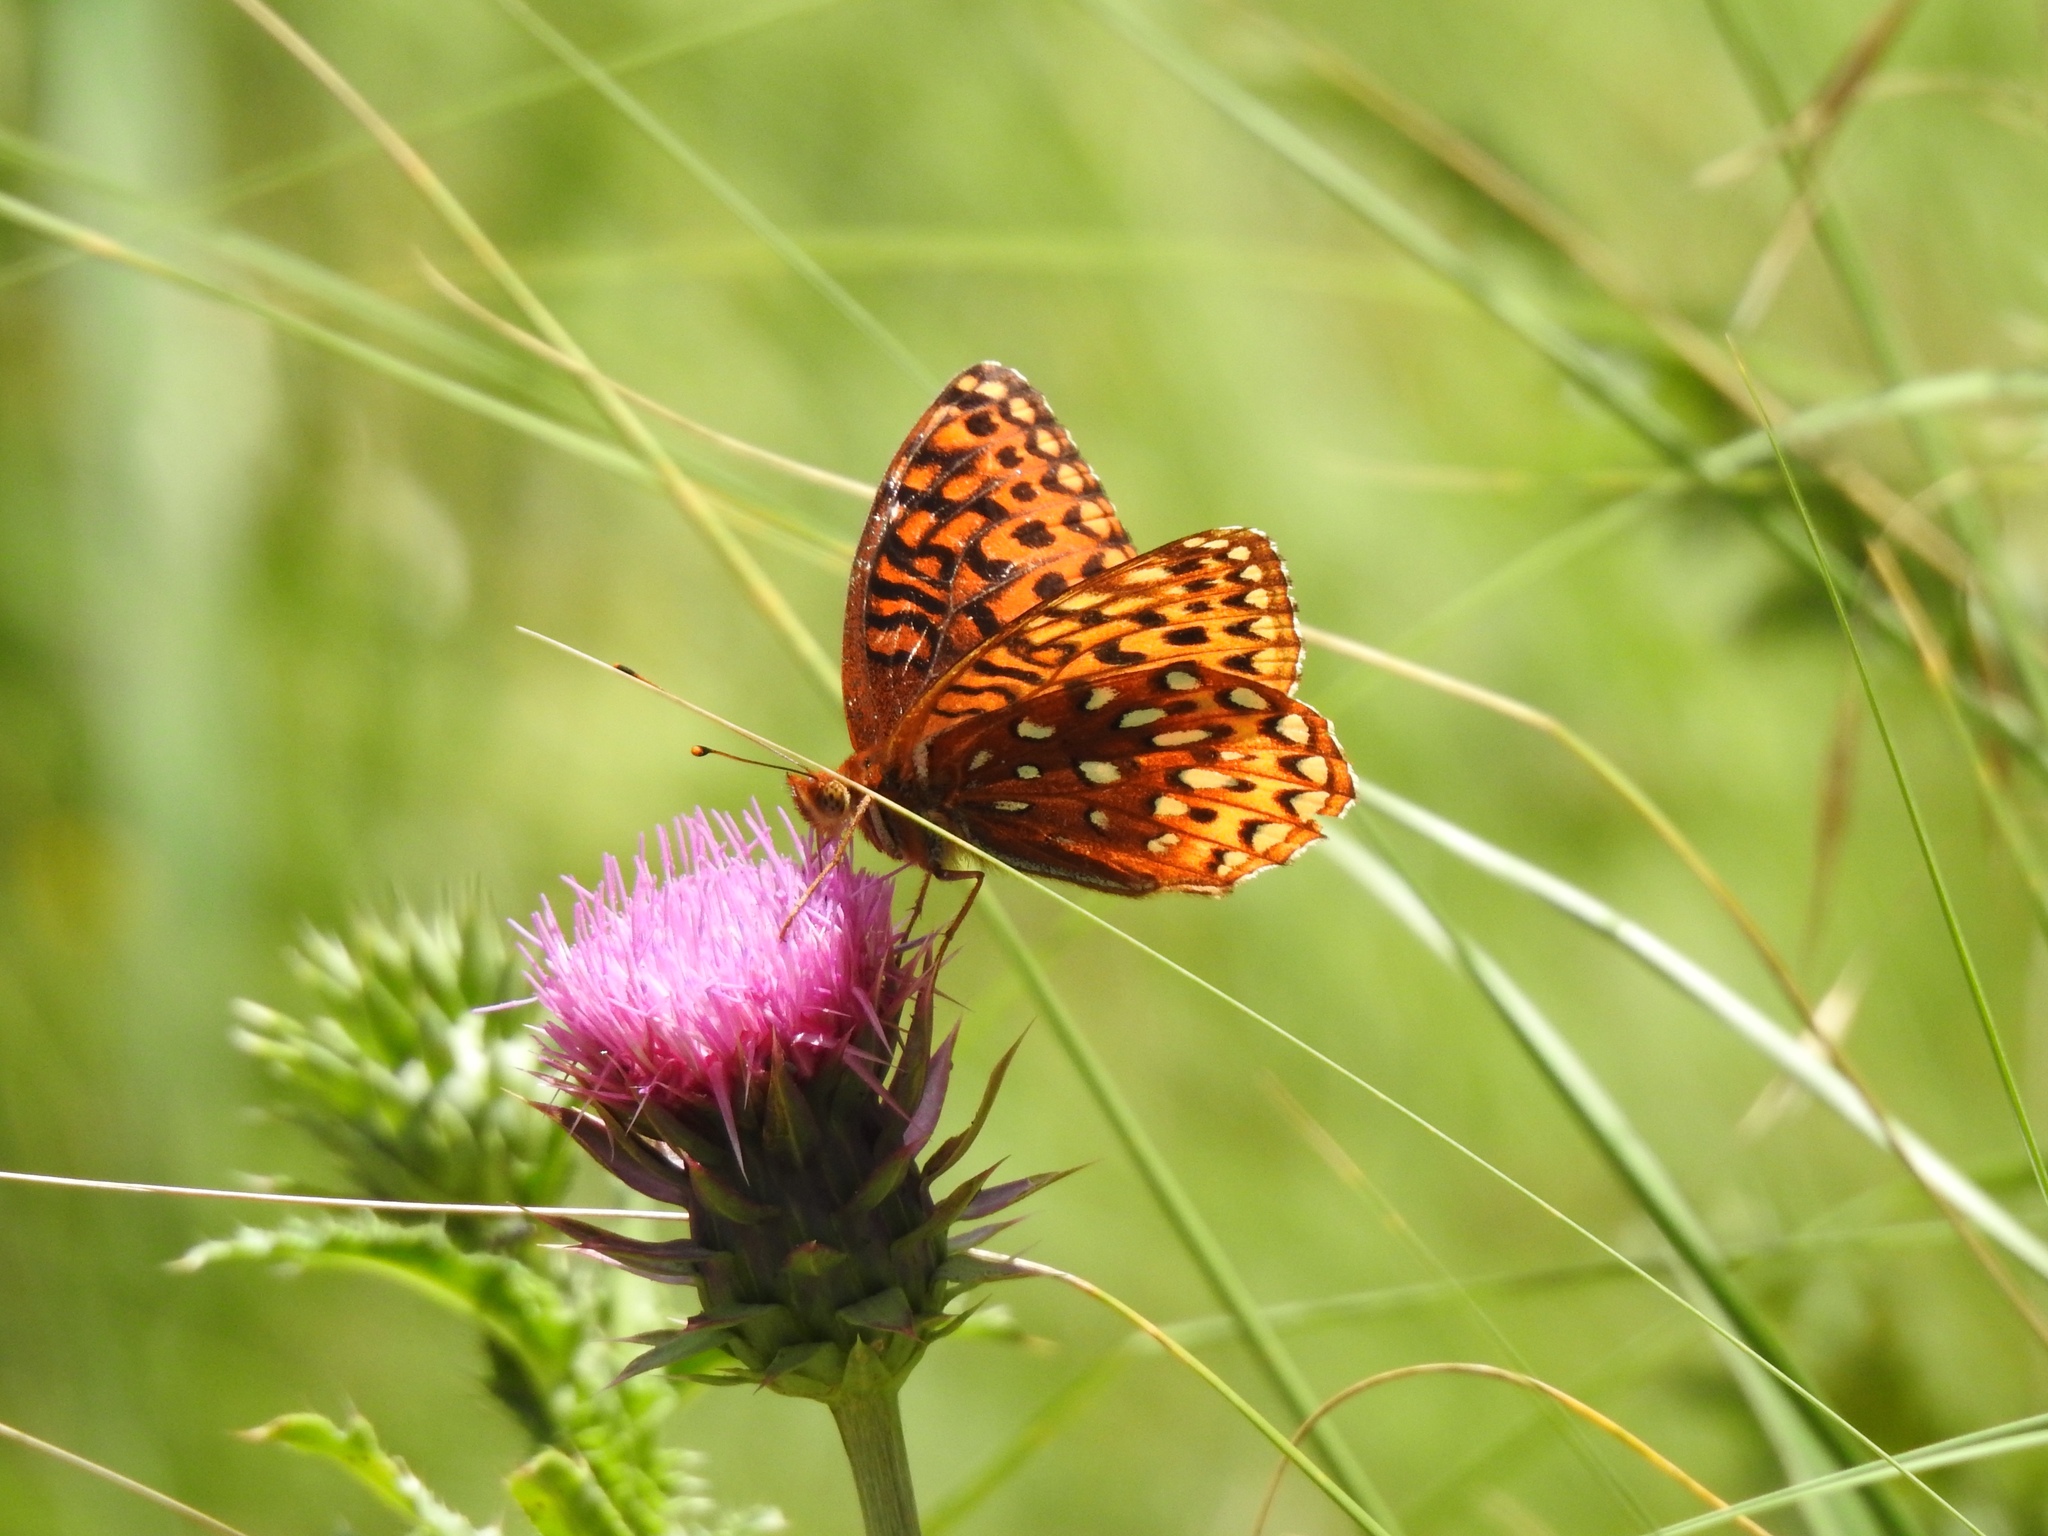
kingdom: Animalia
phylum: Arthropoda
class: Insecta
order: Lepidoptera
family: Nymphalidae
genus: Speyeria
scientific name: Speyeria atlantis
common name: Atlantis fritillary
